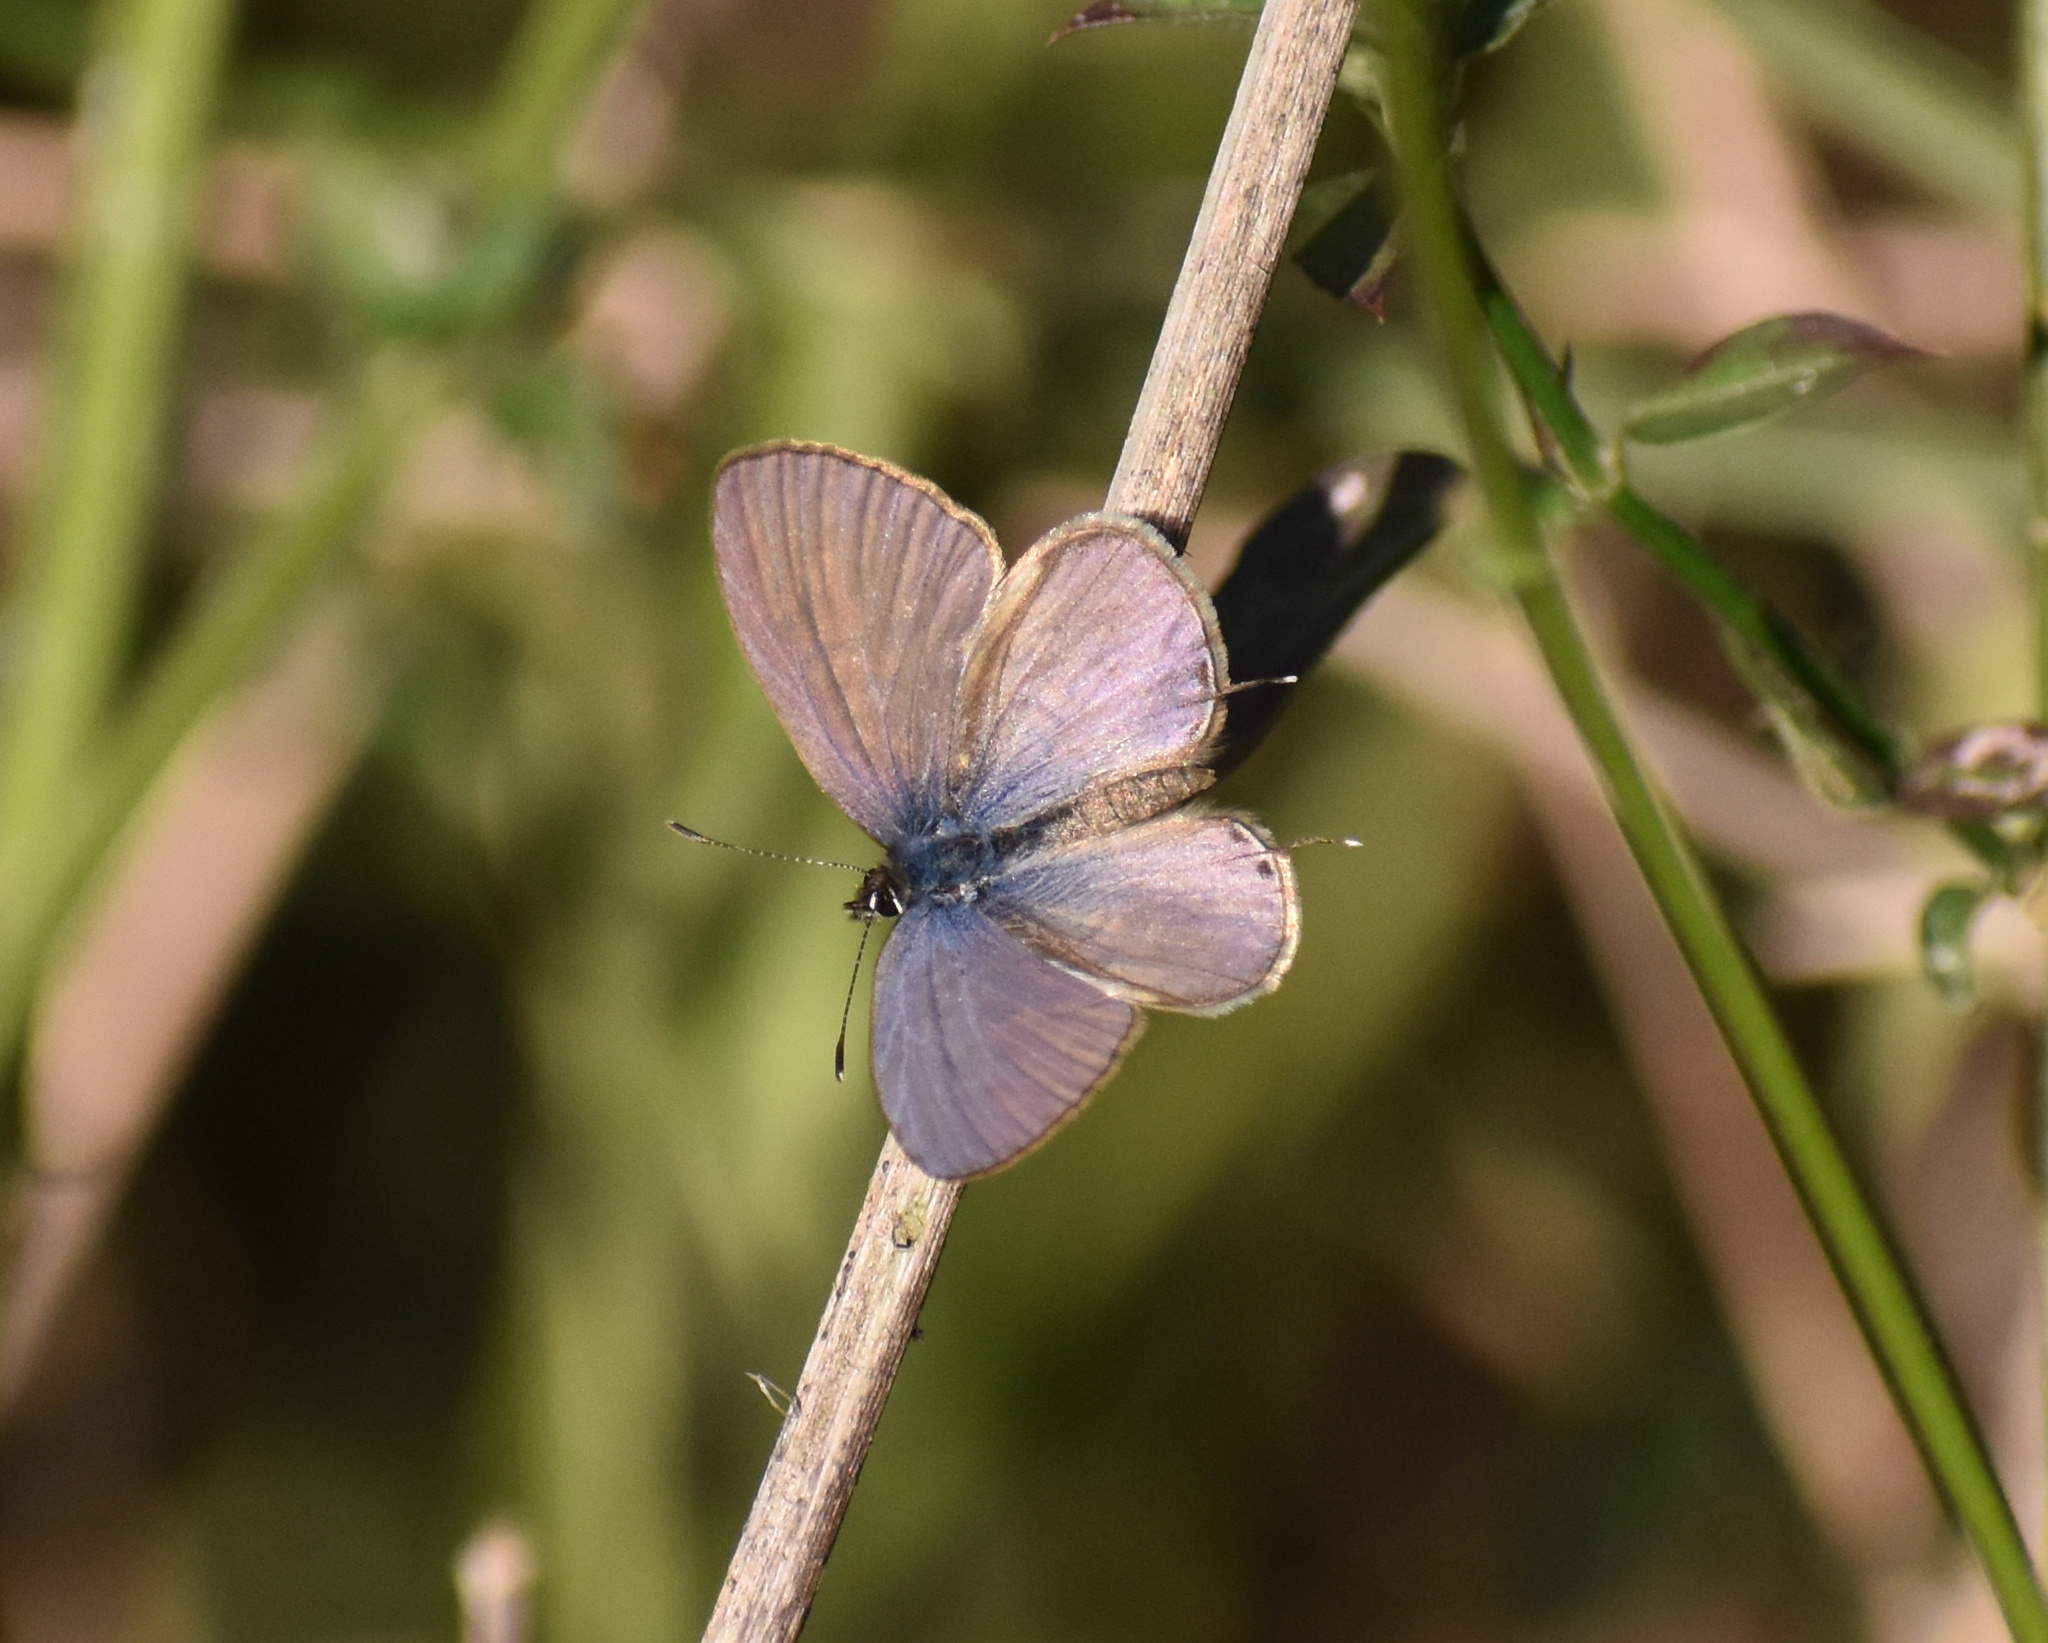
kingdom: Animalia
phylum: Arthropoda
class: Insecta
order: Lepidoptera
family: Lycaenidae
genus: Leptotes
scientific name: Leptotes
